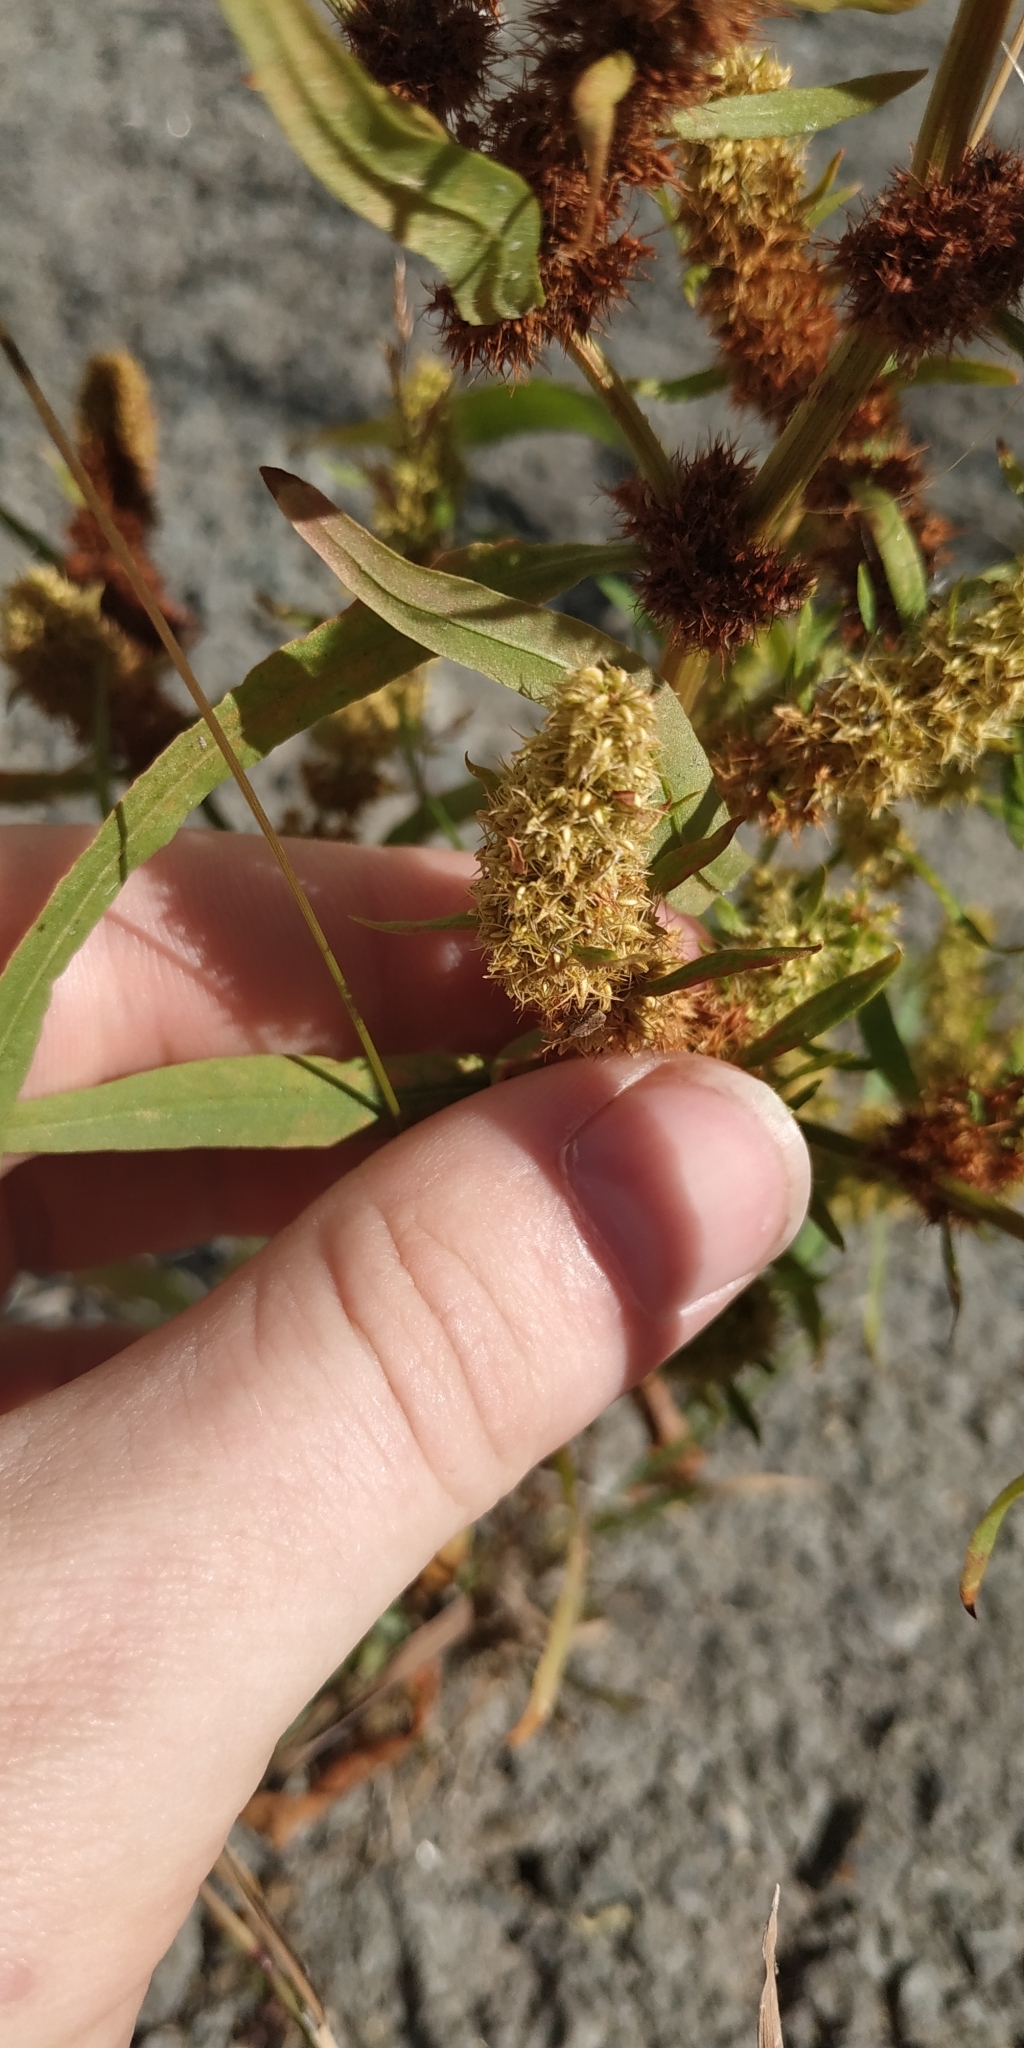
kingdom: Plantae
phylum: Tracheophyta
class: Magnoliopsida
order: Caryophyllales
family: Polygonaceae
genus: Rumex
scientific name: Rumex maritimus
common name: Golden dock
